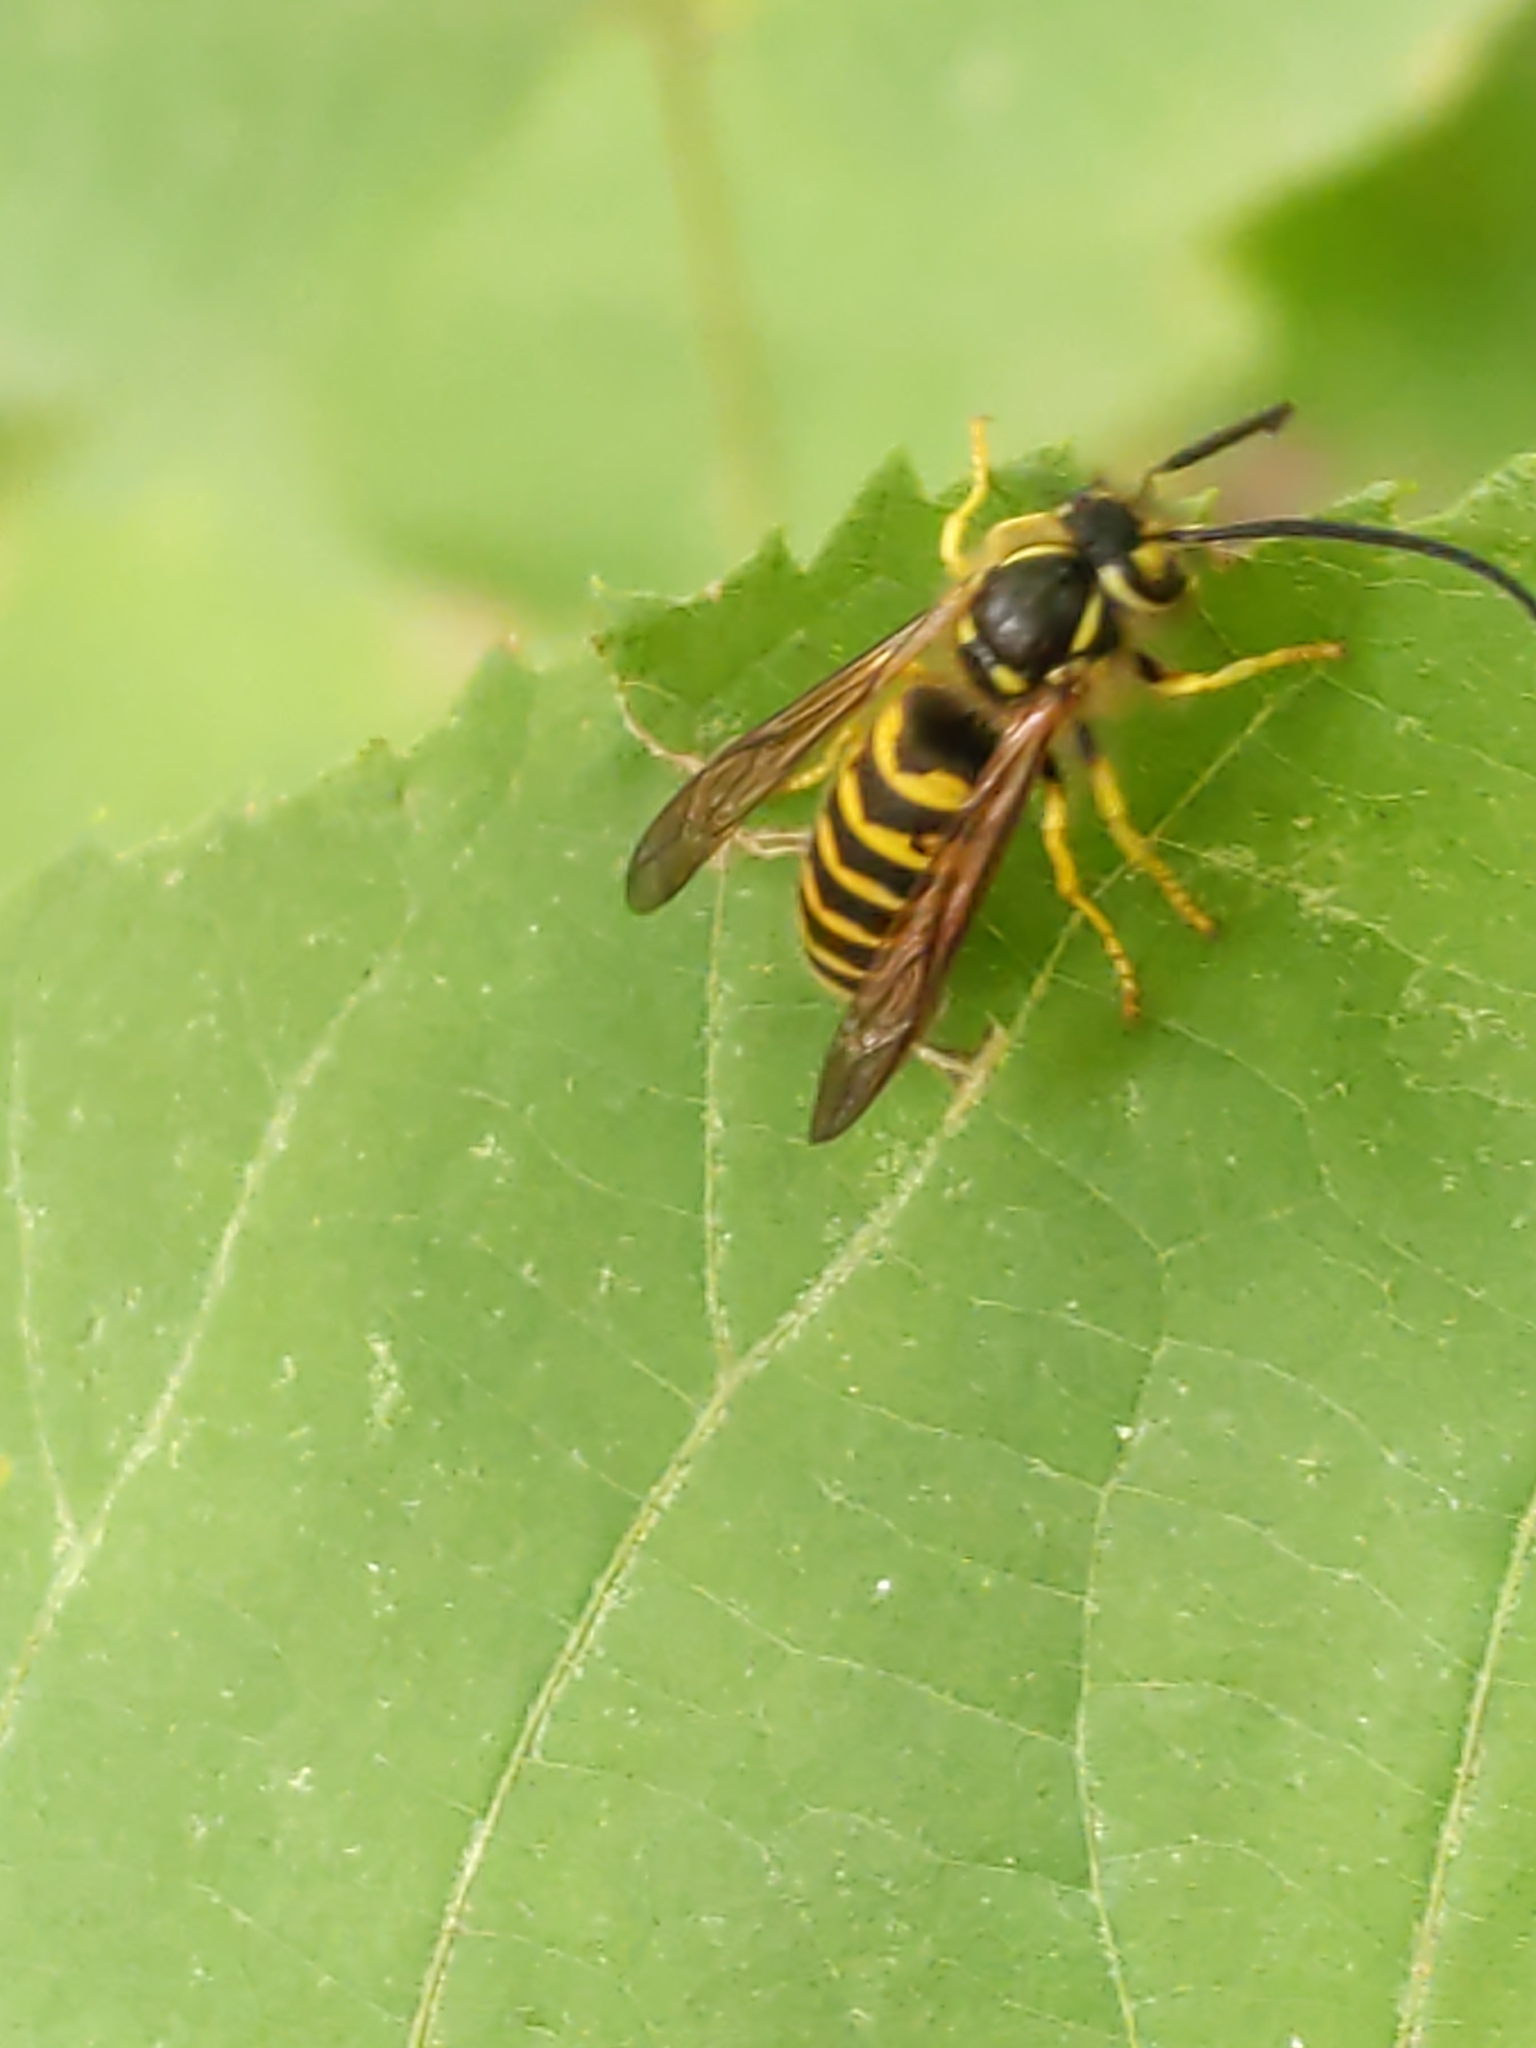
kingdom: Animalia
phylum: Arthropoda
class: Insecta
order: Hymenoptera
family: Vespidae
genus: Vespula
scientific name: Vespula flavopilosa
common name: Downy yellowjacket
